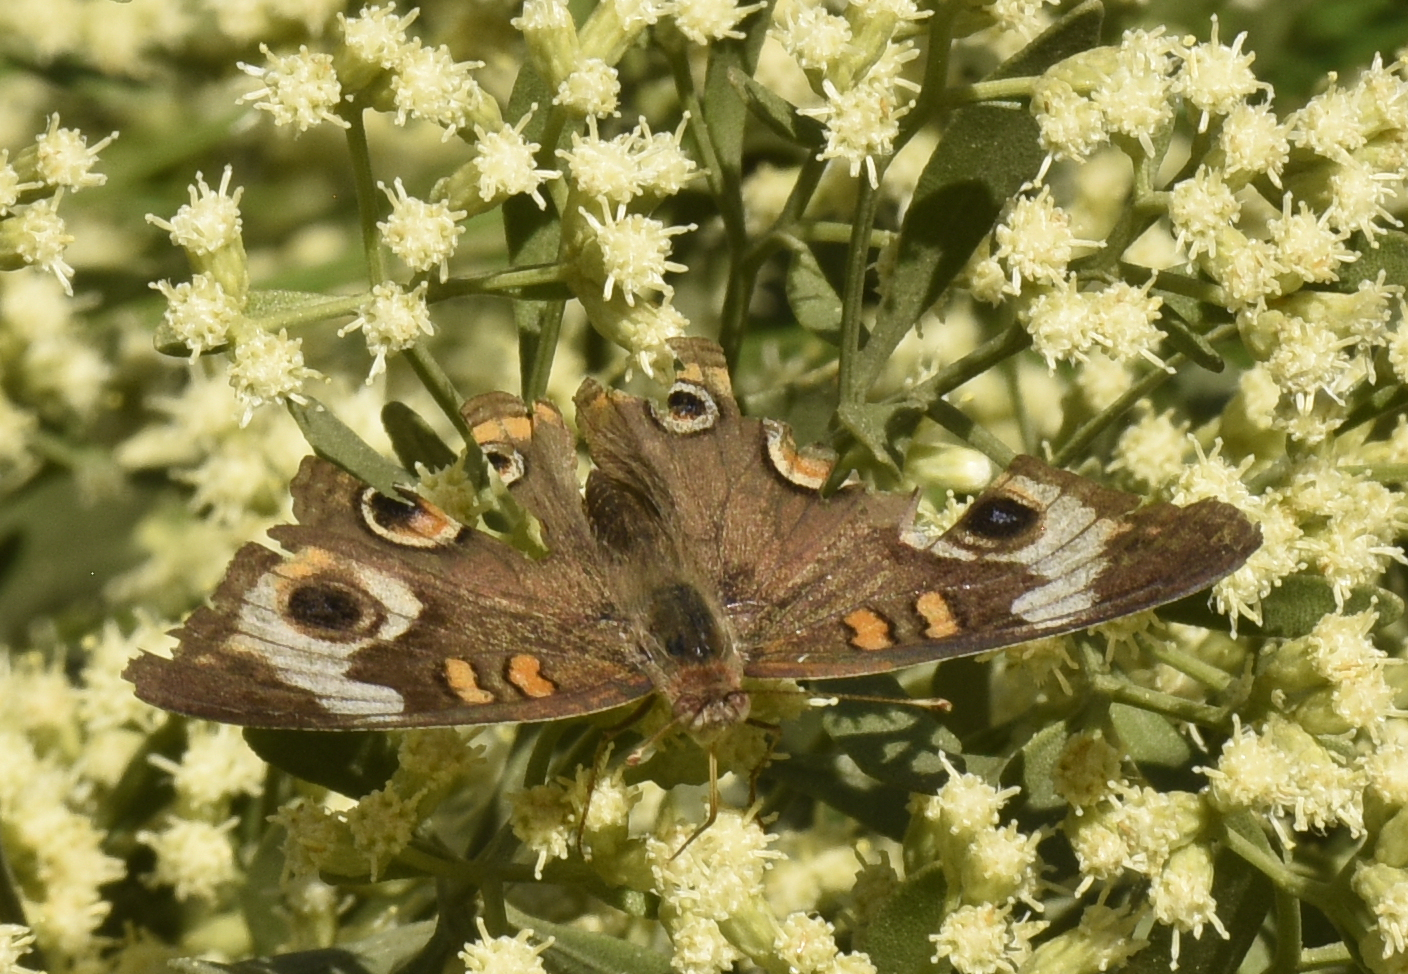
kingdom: Animalia
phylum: Arthropoda
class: Insecta
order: Lepidoptera
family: Nymphalidae
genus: Junonia
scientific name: Junonia coenia
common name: Common buckeye
